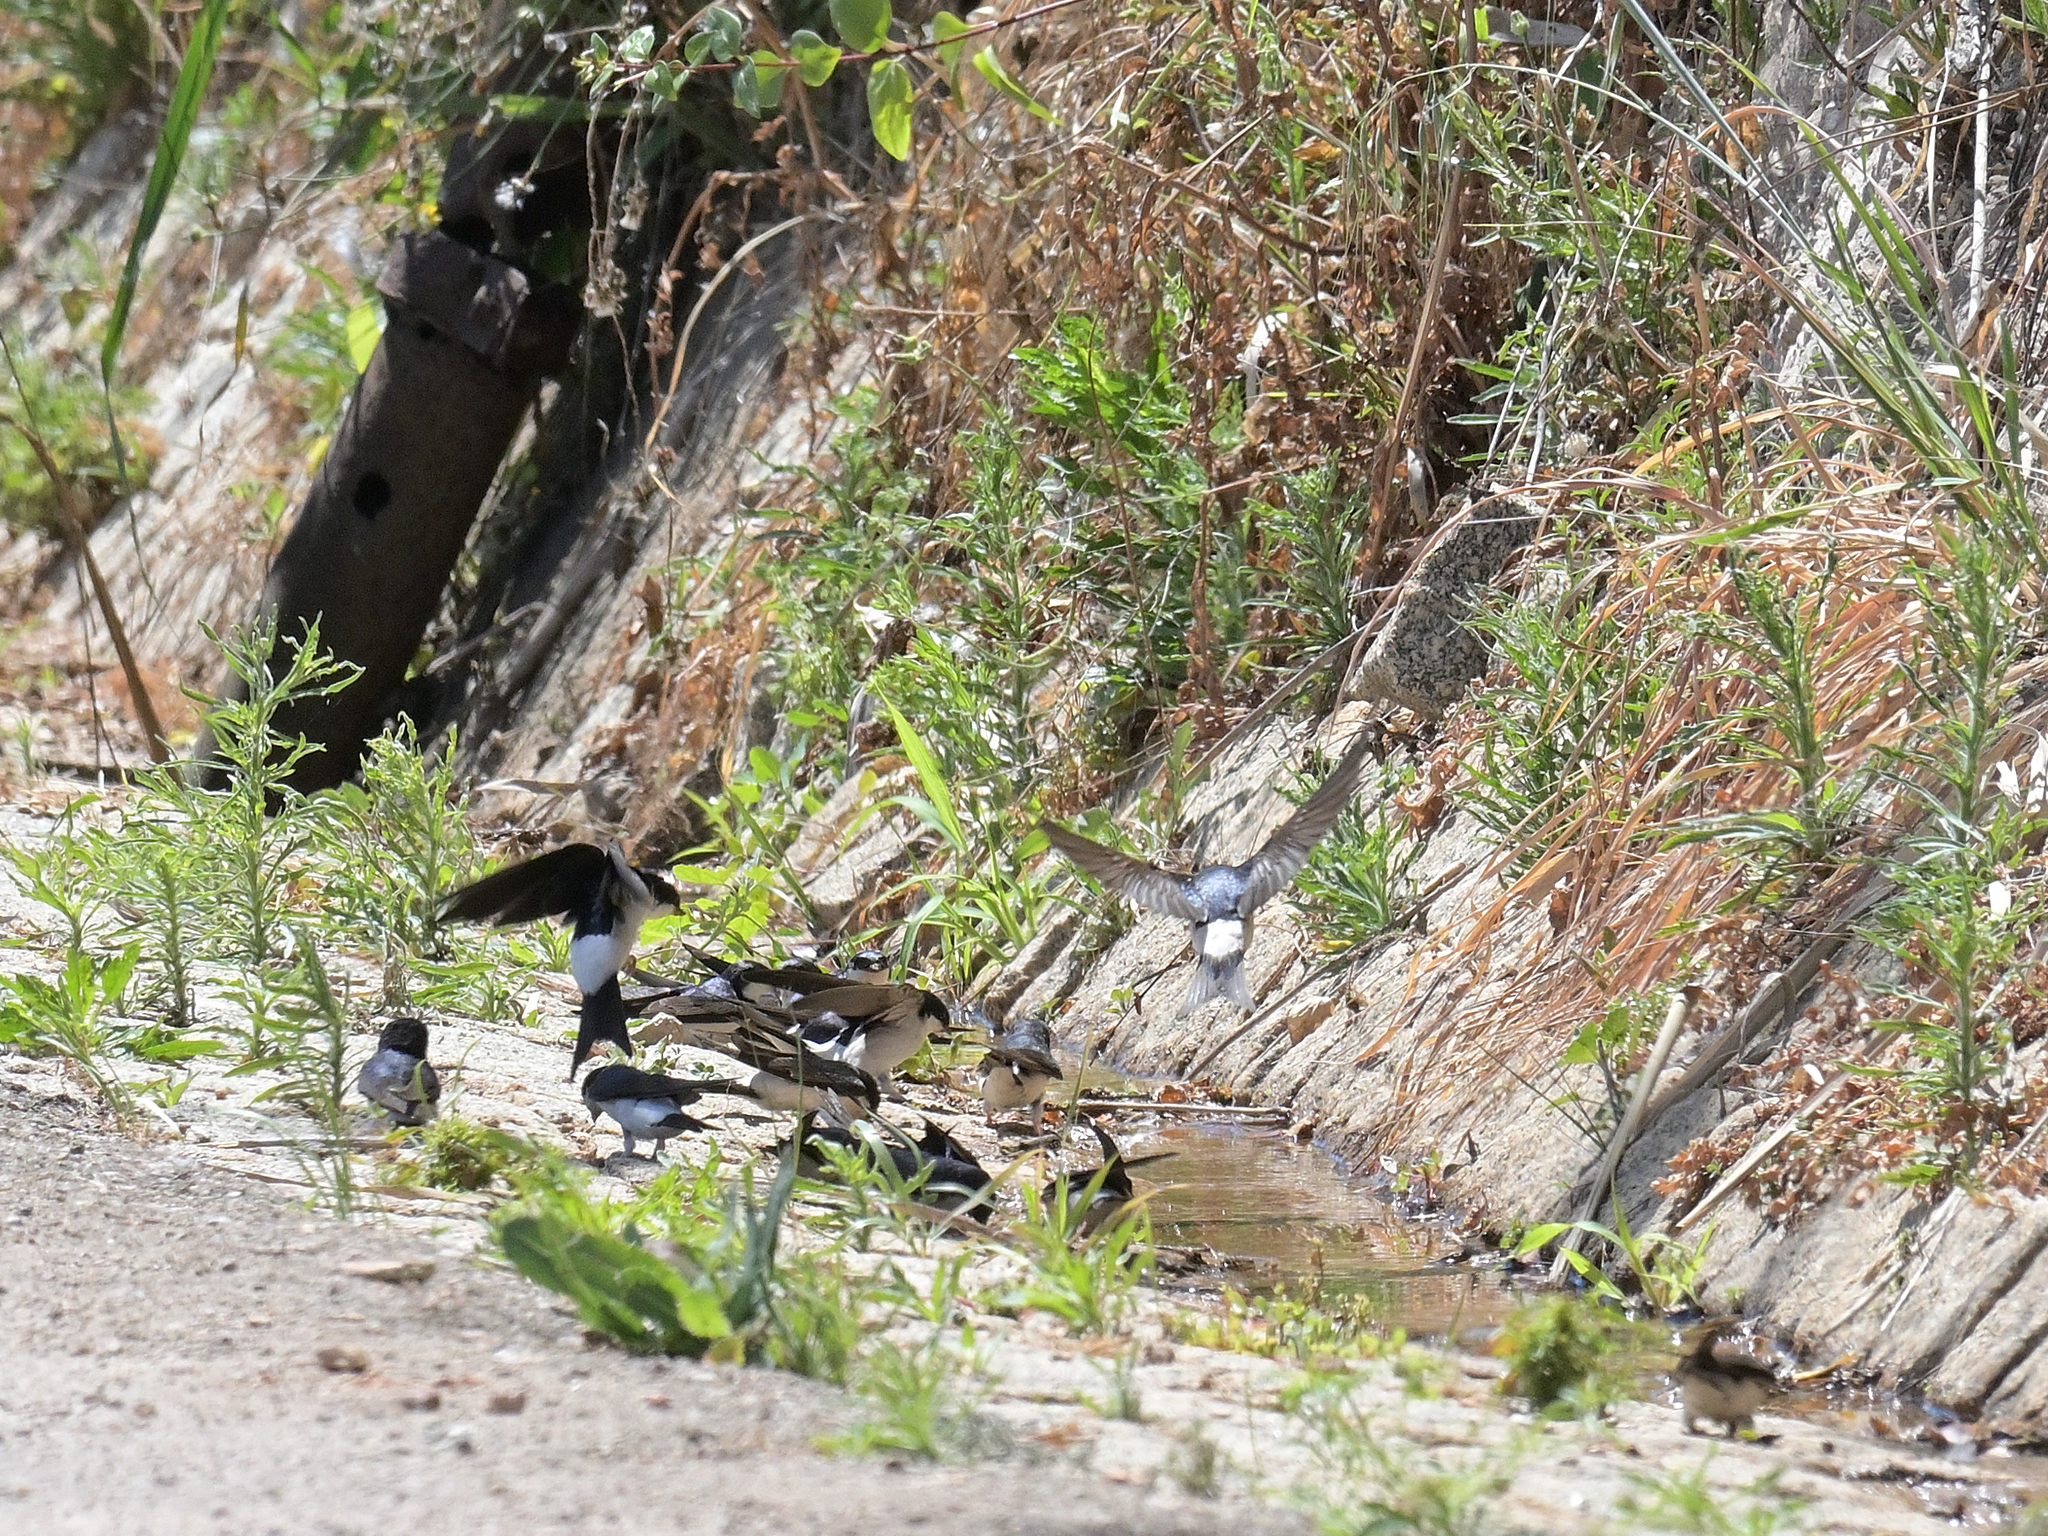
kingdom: Animalia
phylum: Chordata
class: Aves
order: Passeriformes
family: Hirundinidae
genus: Delichon
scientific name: Delichon urbicum
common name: Common house martin
